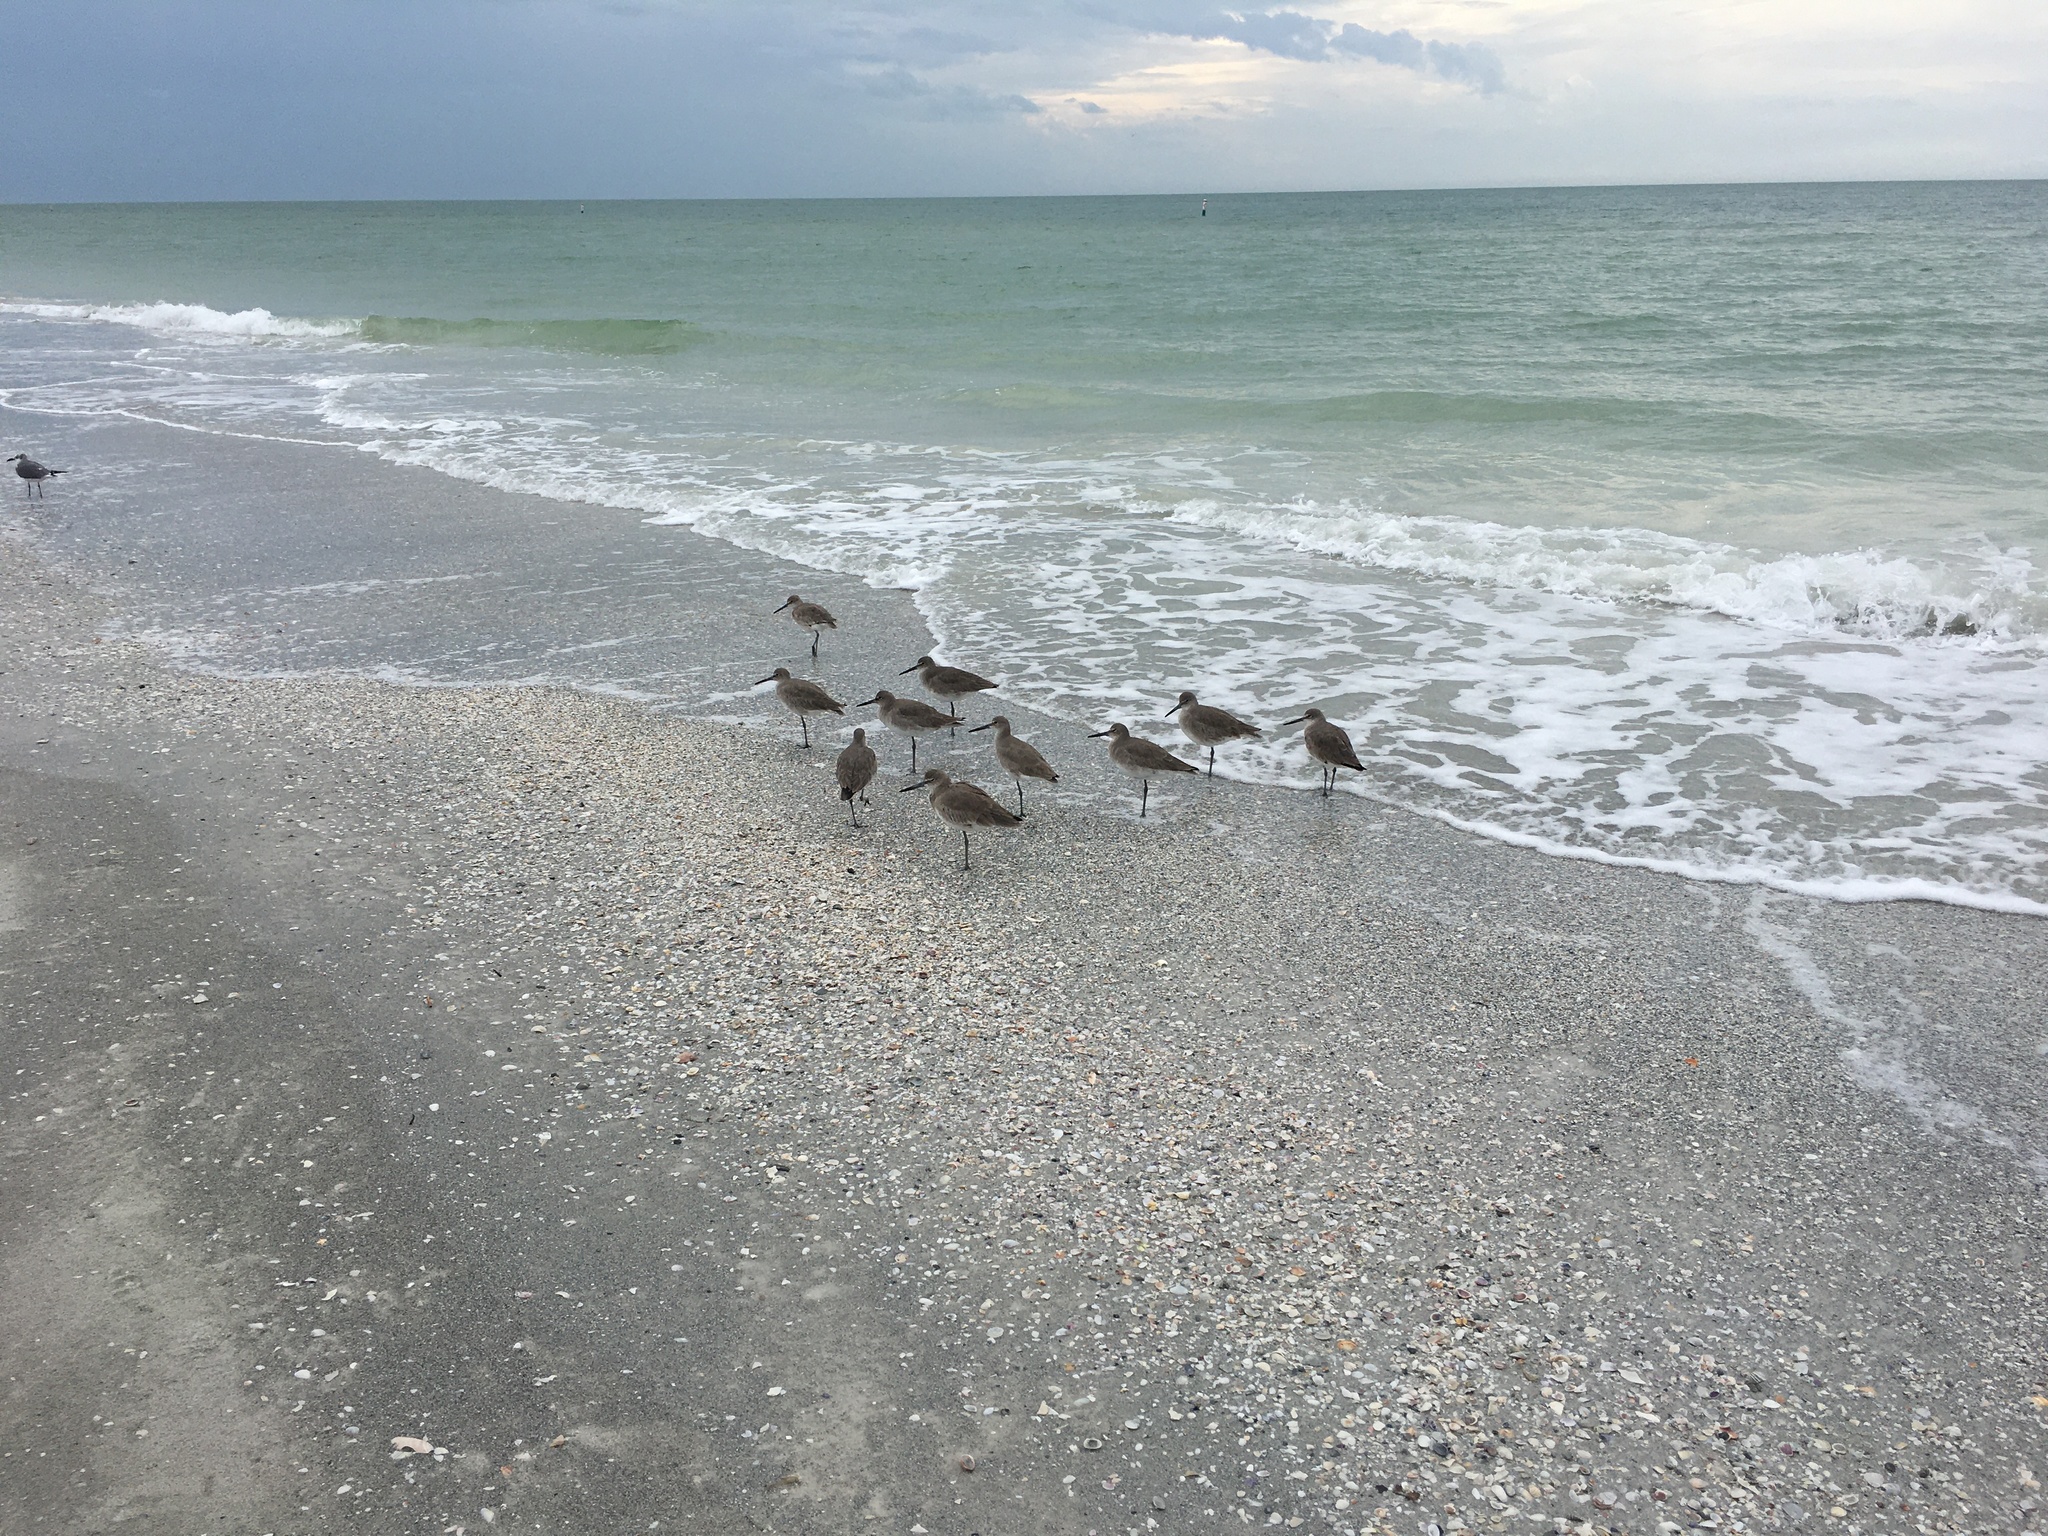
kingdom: Animalia
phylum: Chordata
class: Aves
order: Charadriiformes
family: Scolopacidae
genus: Tringa
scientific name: Tringa semipalmata
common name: Willet
